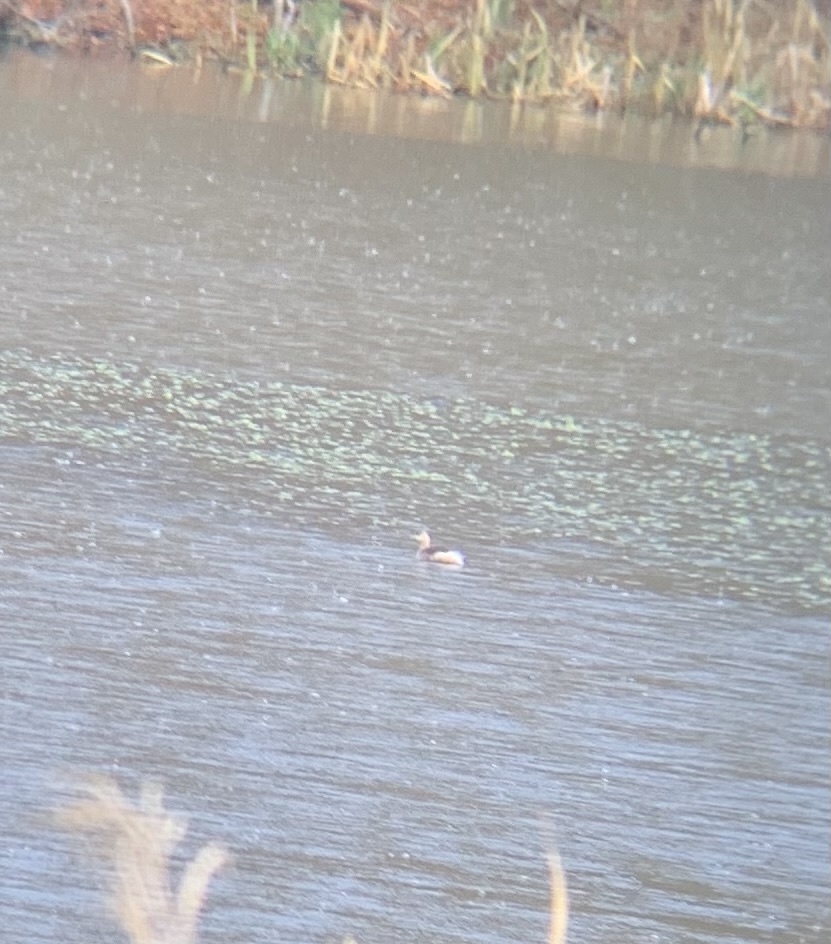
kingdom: Animalia
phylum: Chordata
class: Aves
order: Podicipediformes
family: Podicipedidae
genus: Tachybaptus
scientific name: Tachybaptus ruficollis
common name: Little grebe
